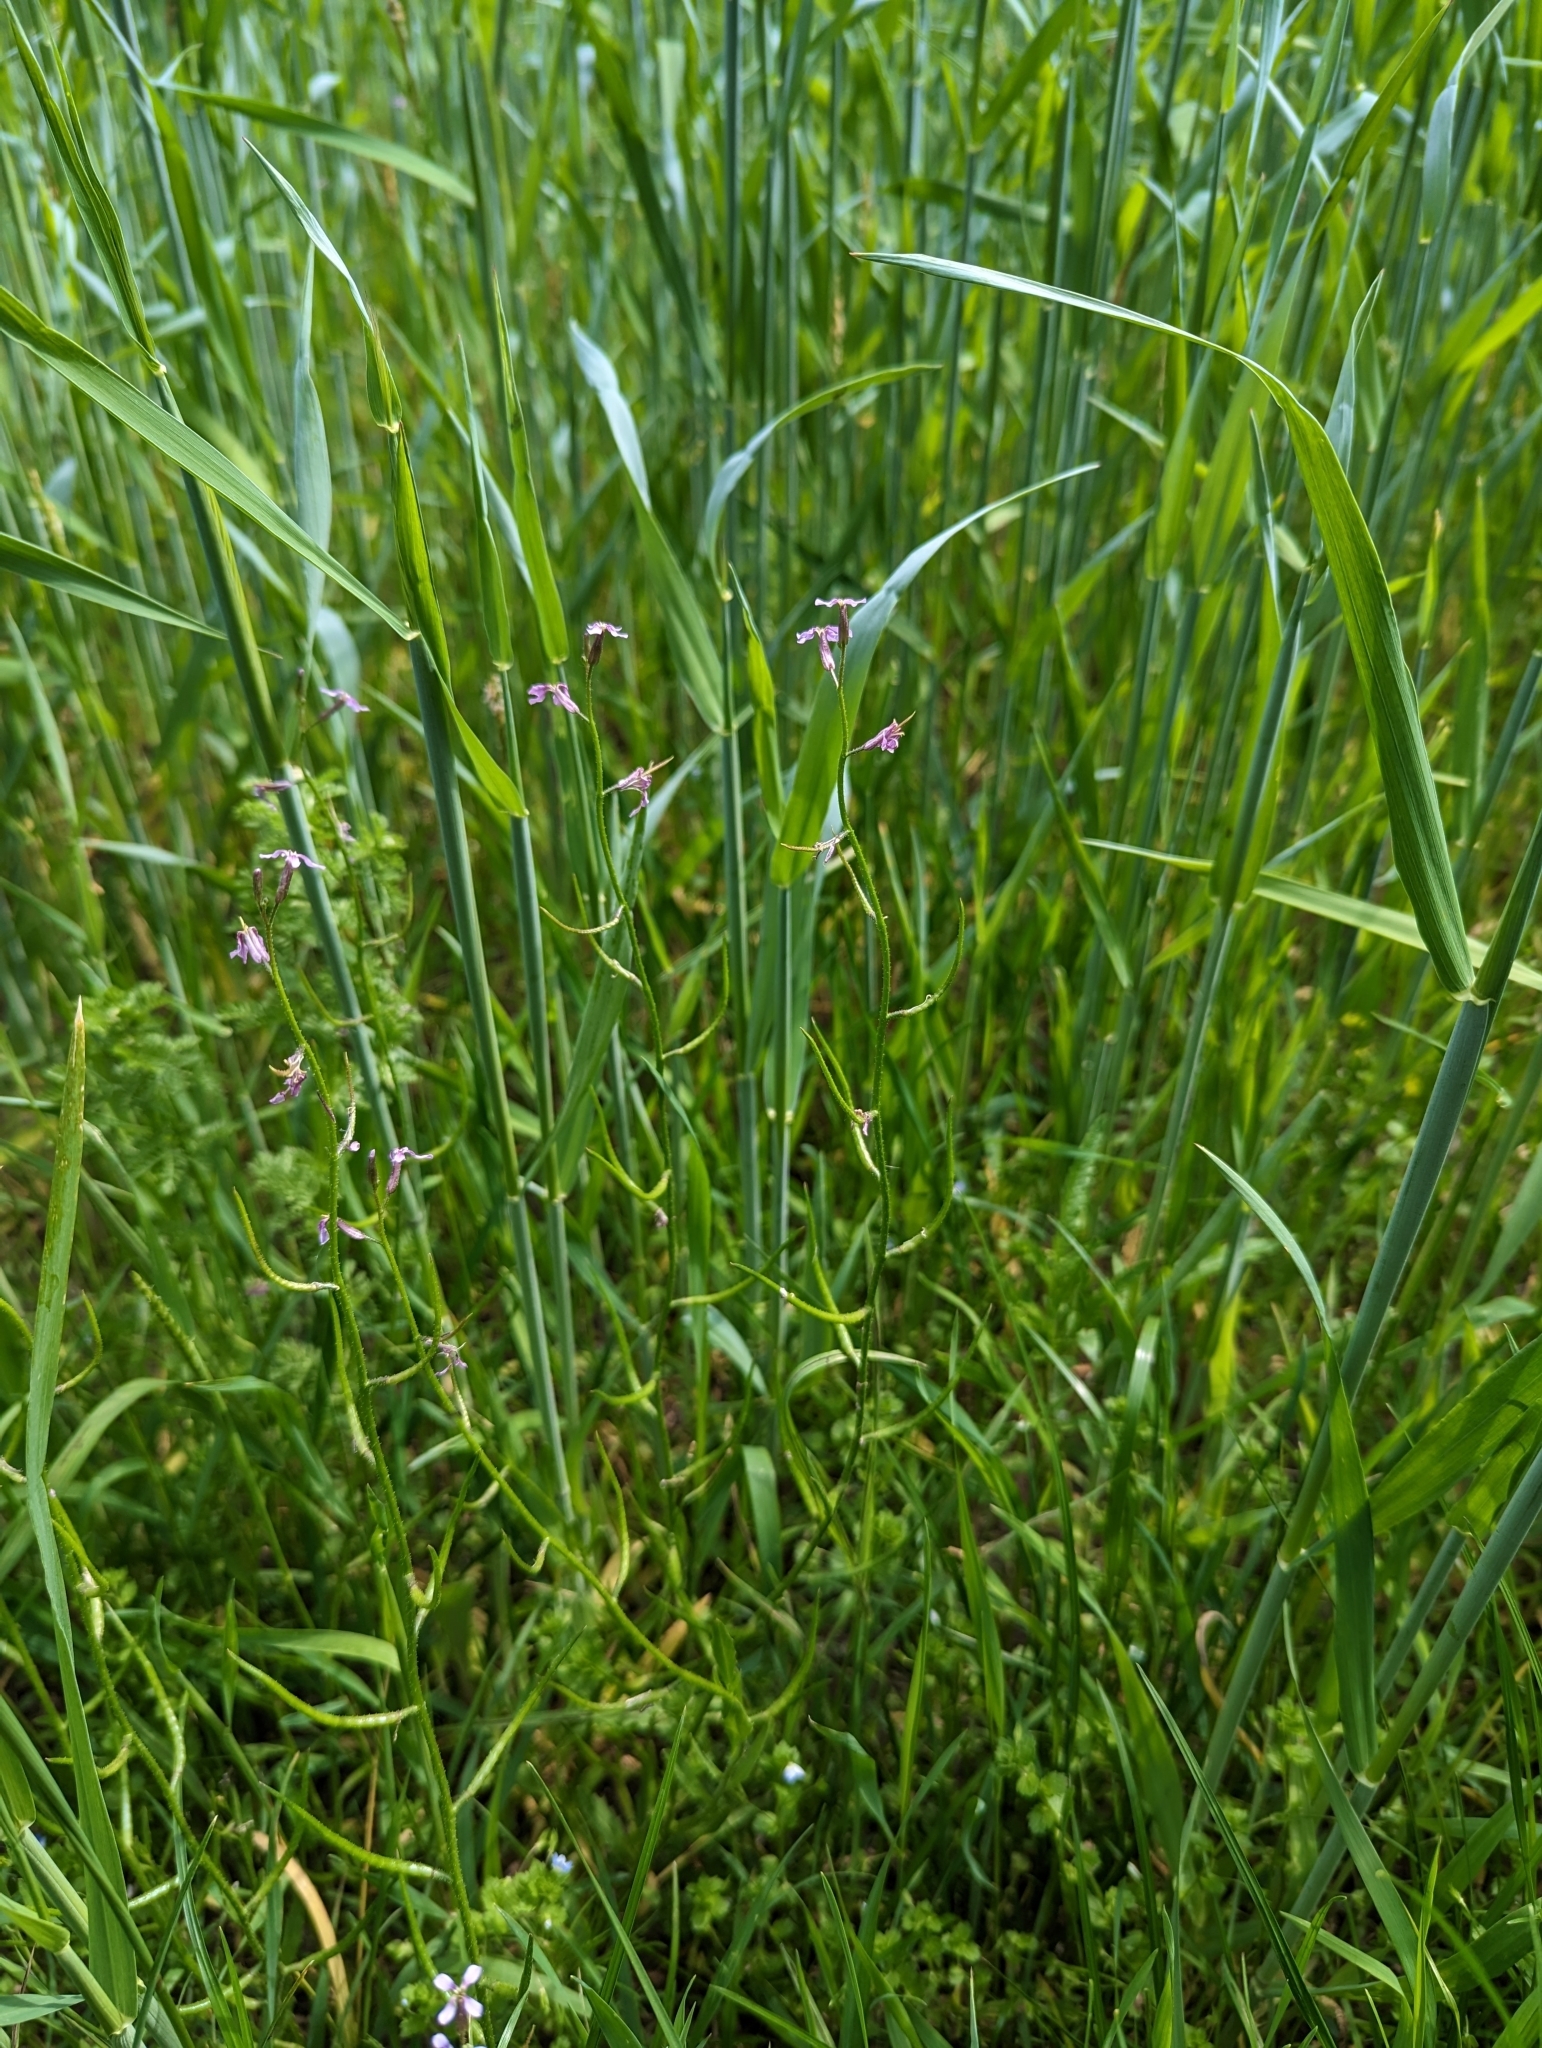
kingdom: Plantae
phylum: Tracheophyta
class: Magnoliopsida
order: Brassicales
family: Brassicaceae
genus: Chorispora
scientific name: Chorispora tenella
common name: Crossflower
